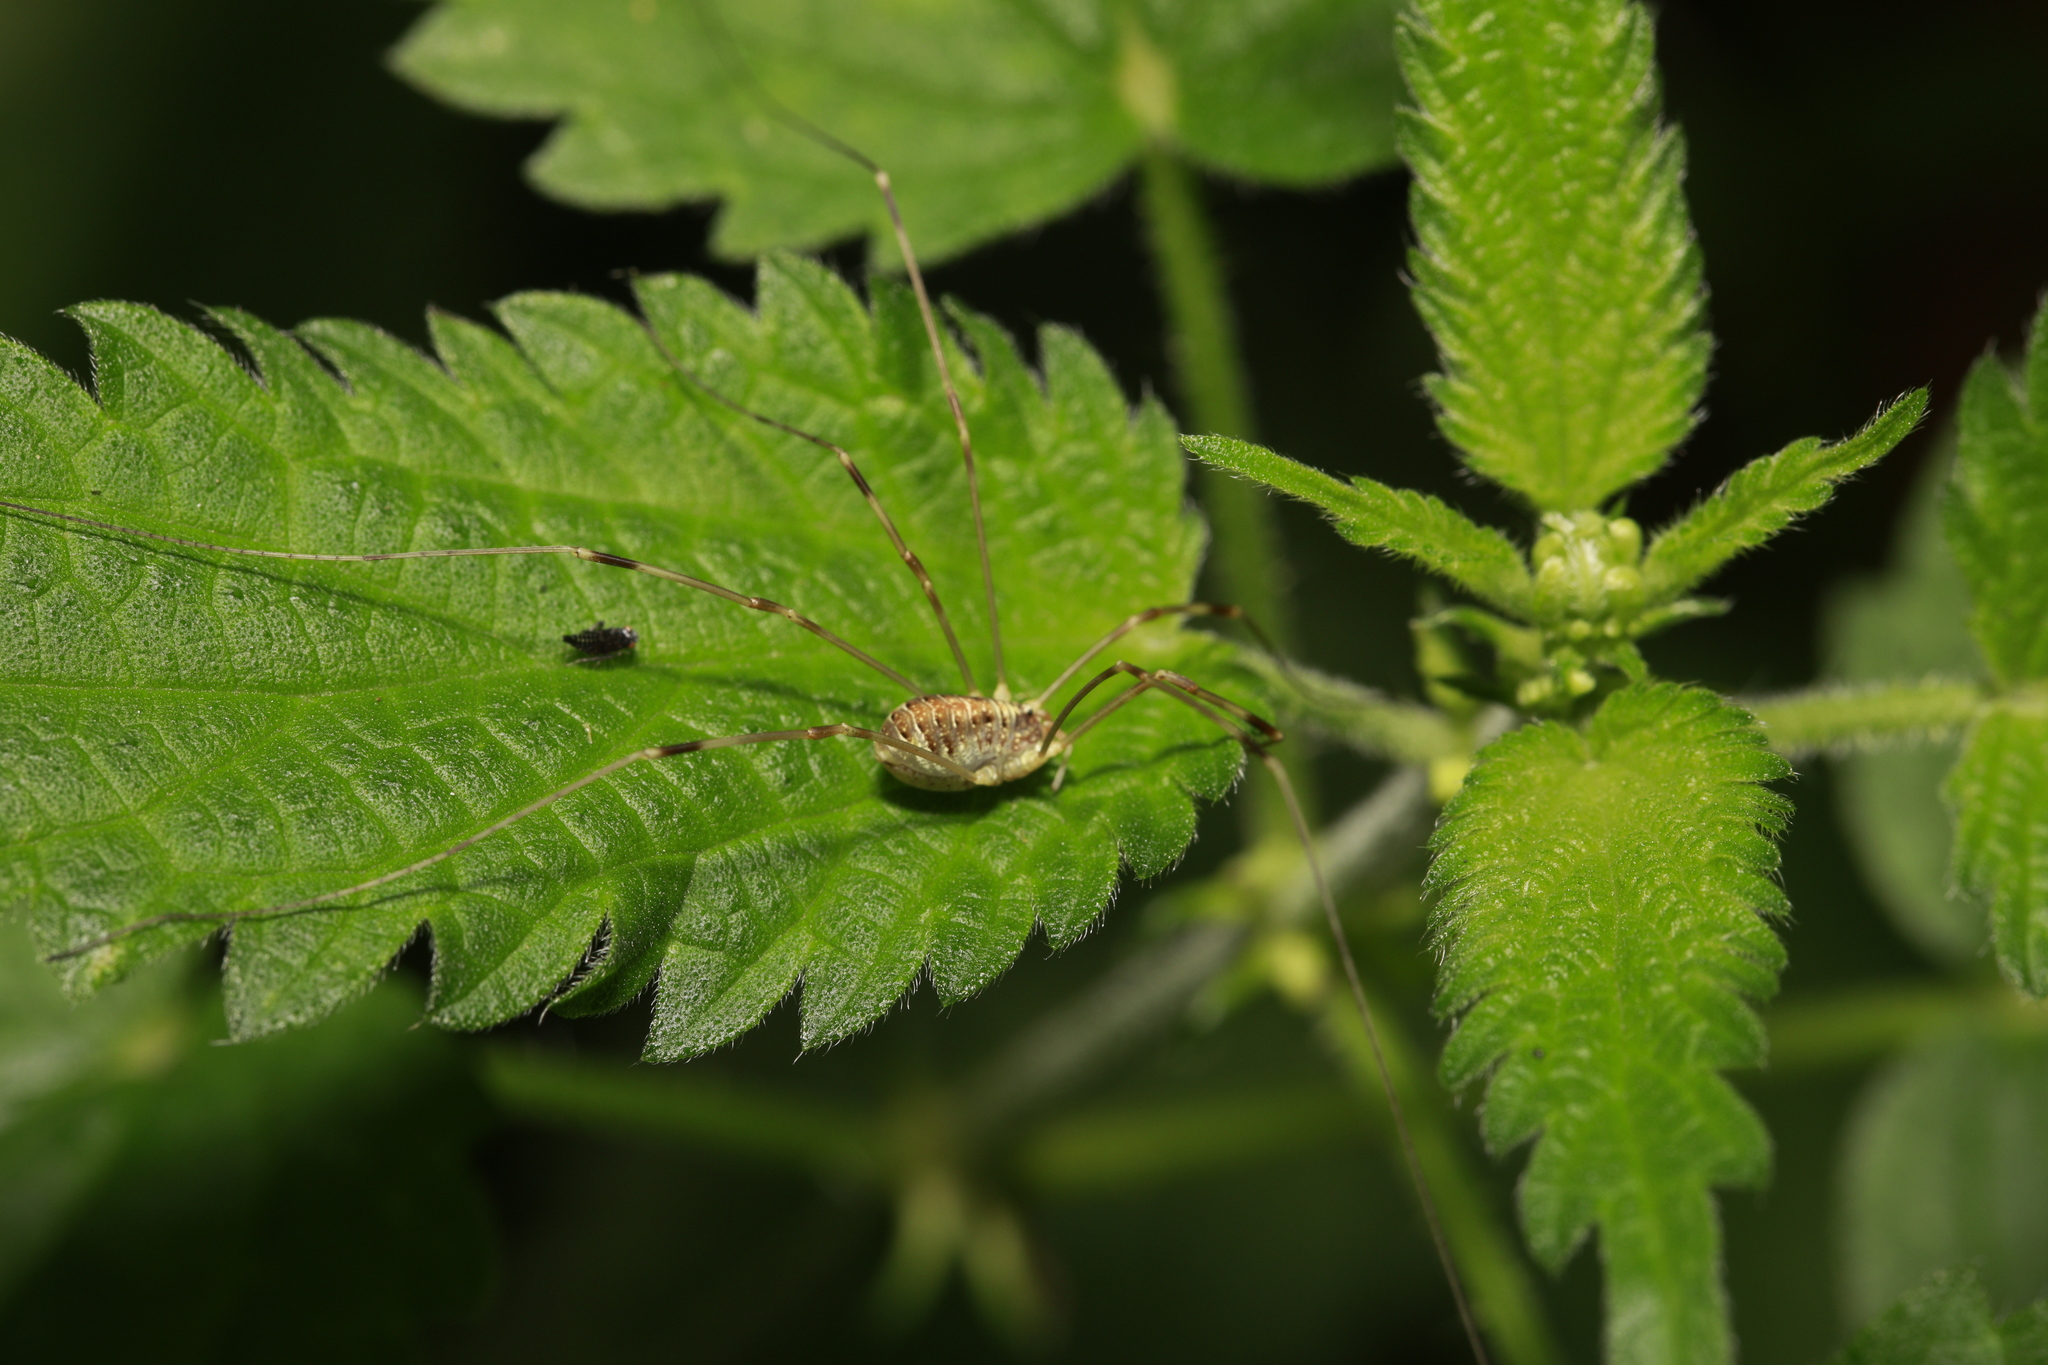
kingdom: Animalia
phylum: Arthropoda
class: Arachnida
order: Opiliones
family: Phalangiidae
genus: Opilio
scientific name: Opilio canestrinii
